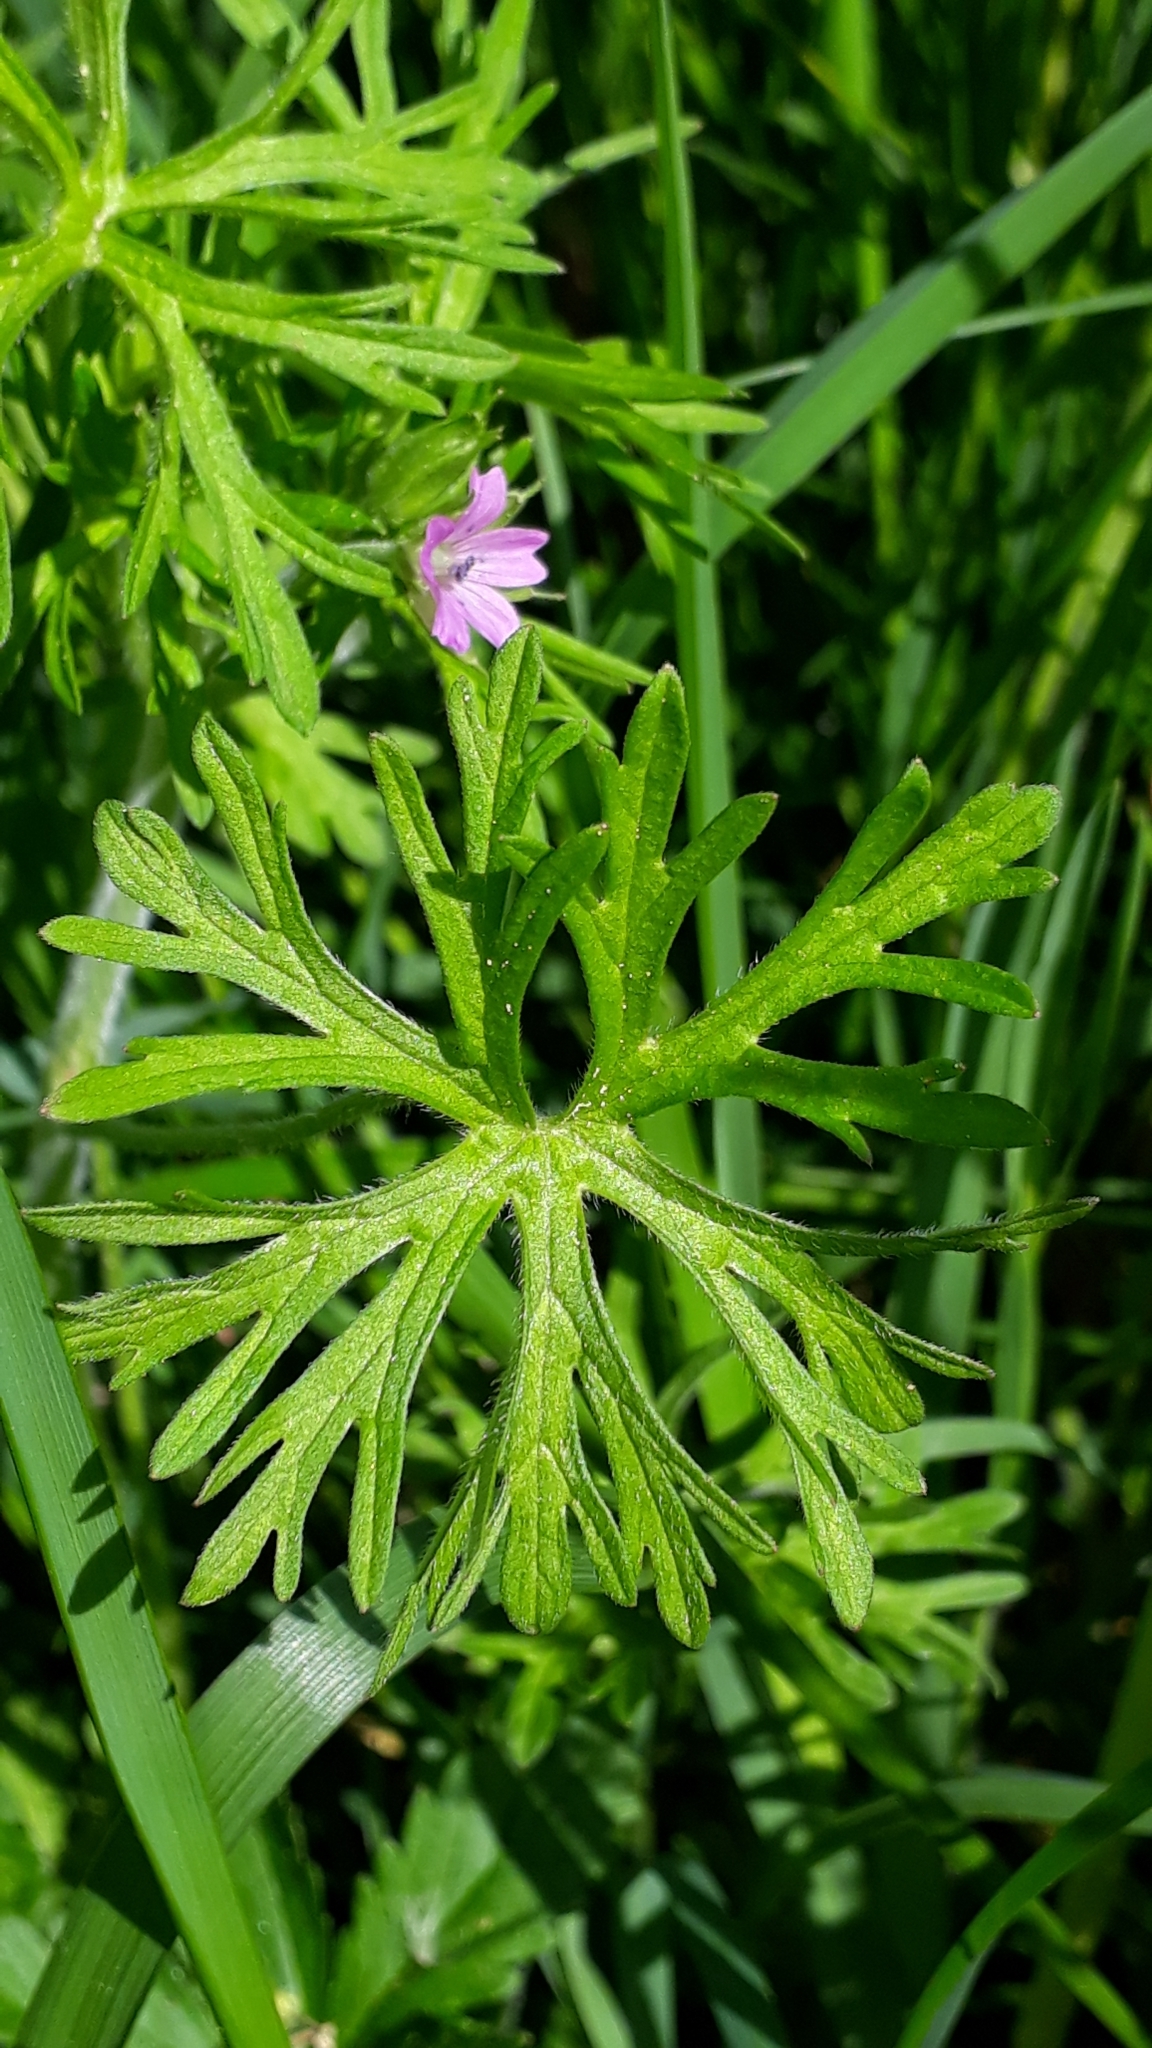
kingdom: Plantae
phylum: Tracheophyta
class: Magnoliopsida
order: Geraniales
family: Geraniaceae
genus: Geranium
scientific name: Geranium dissectum
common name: Cut-leaved crane's-bill
